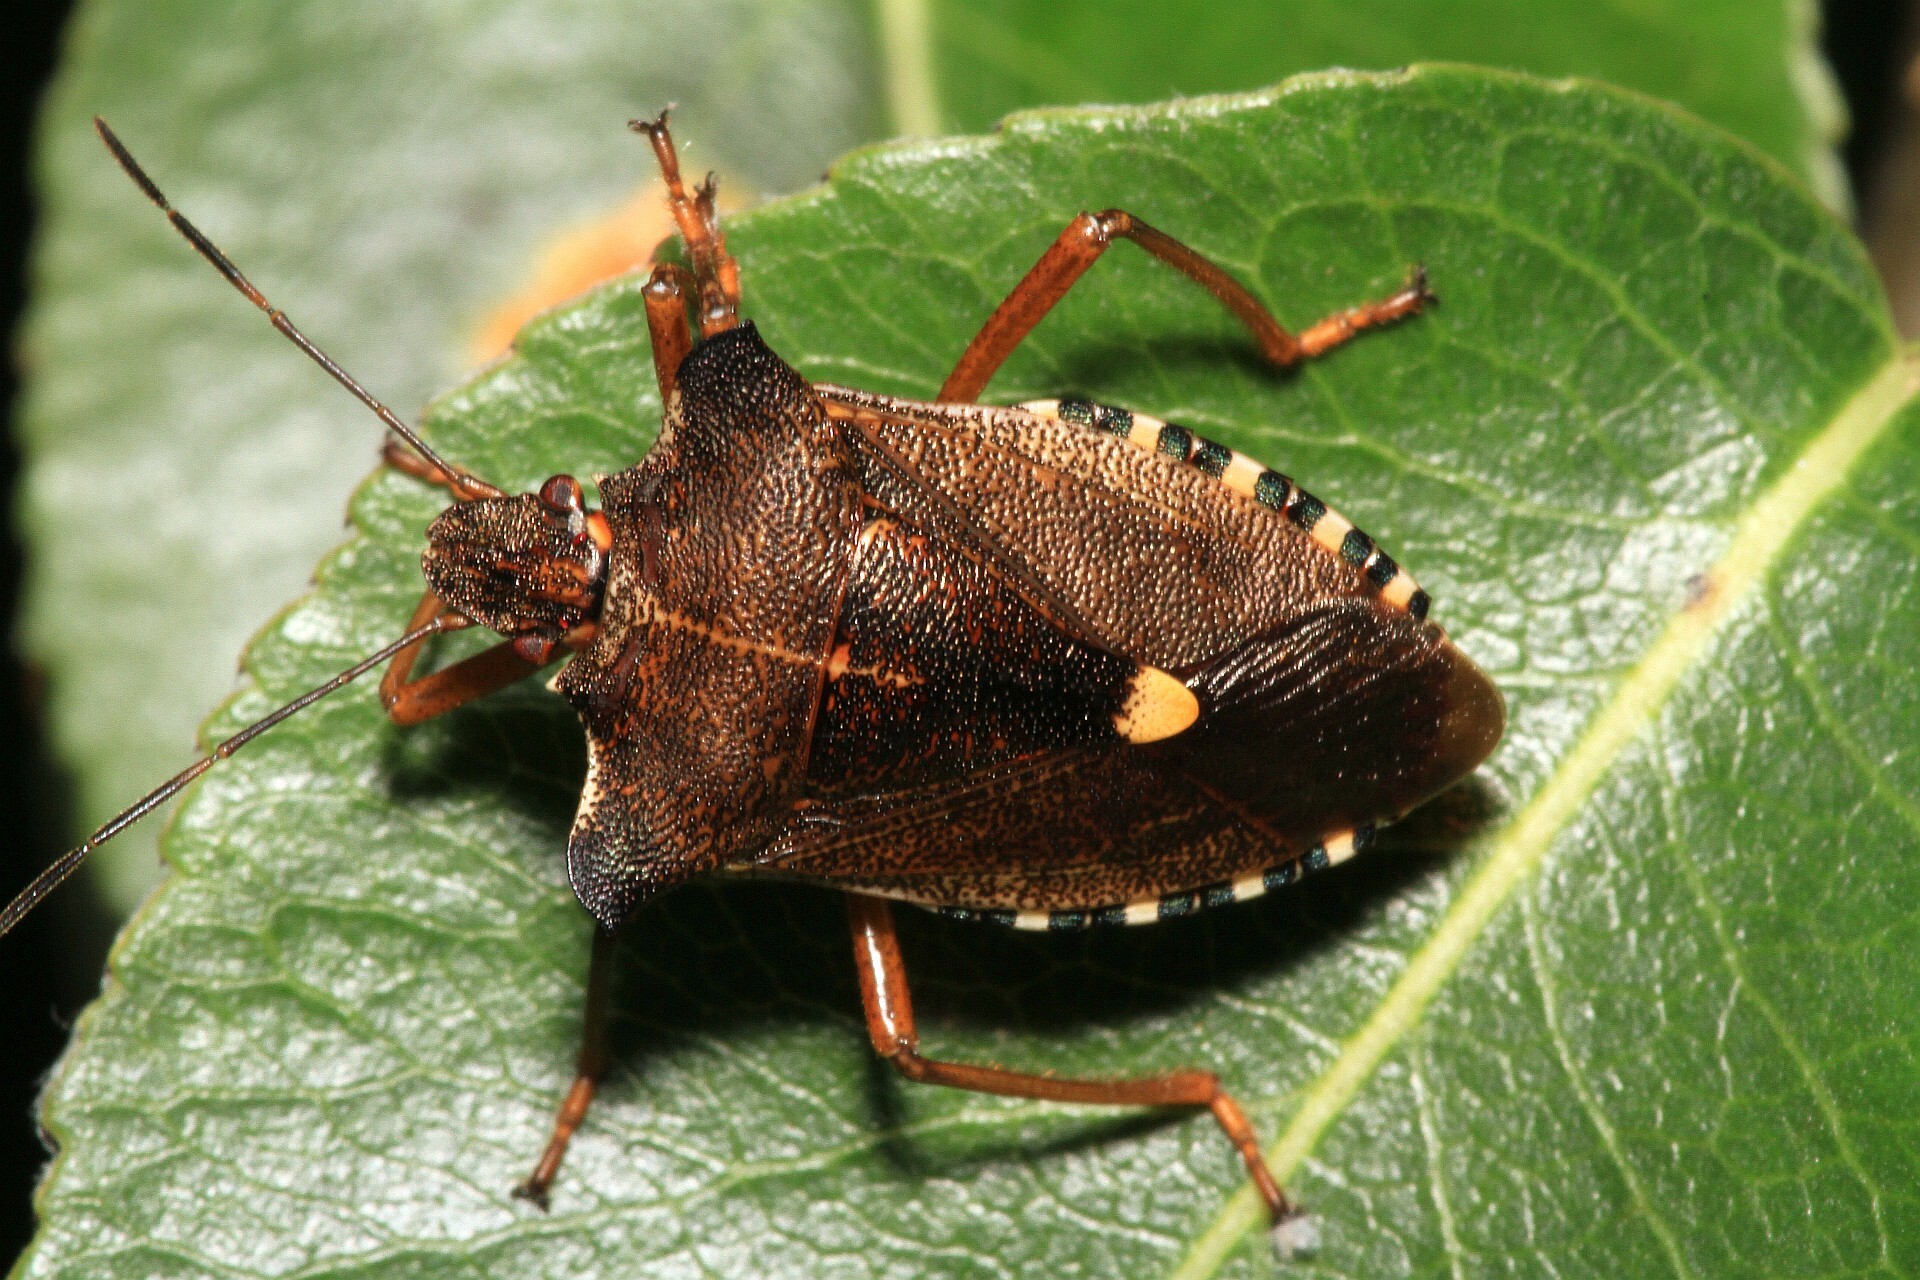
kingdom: Animalia
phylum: Arthropoda
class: Insecta
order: Hemiptera
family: Pentatomidae
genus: Pentatoma
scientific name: Pentatoma rufipes
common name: Forest bug
